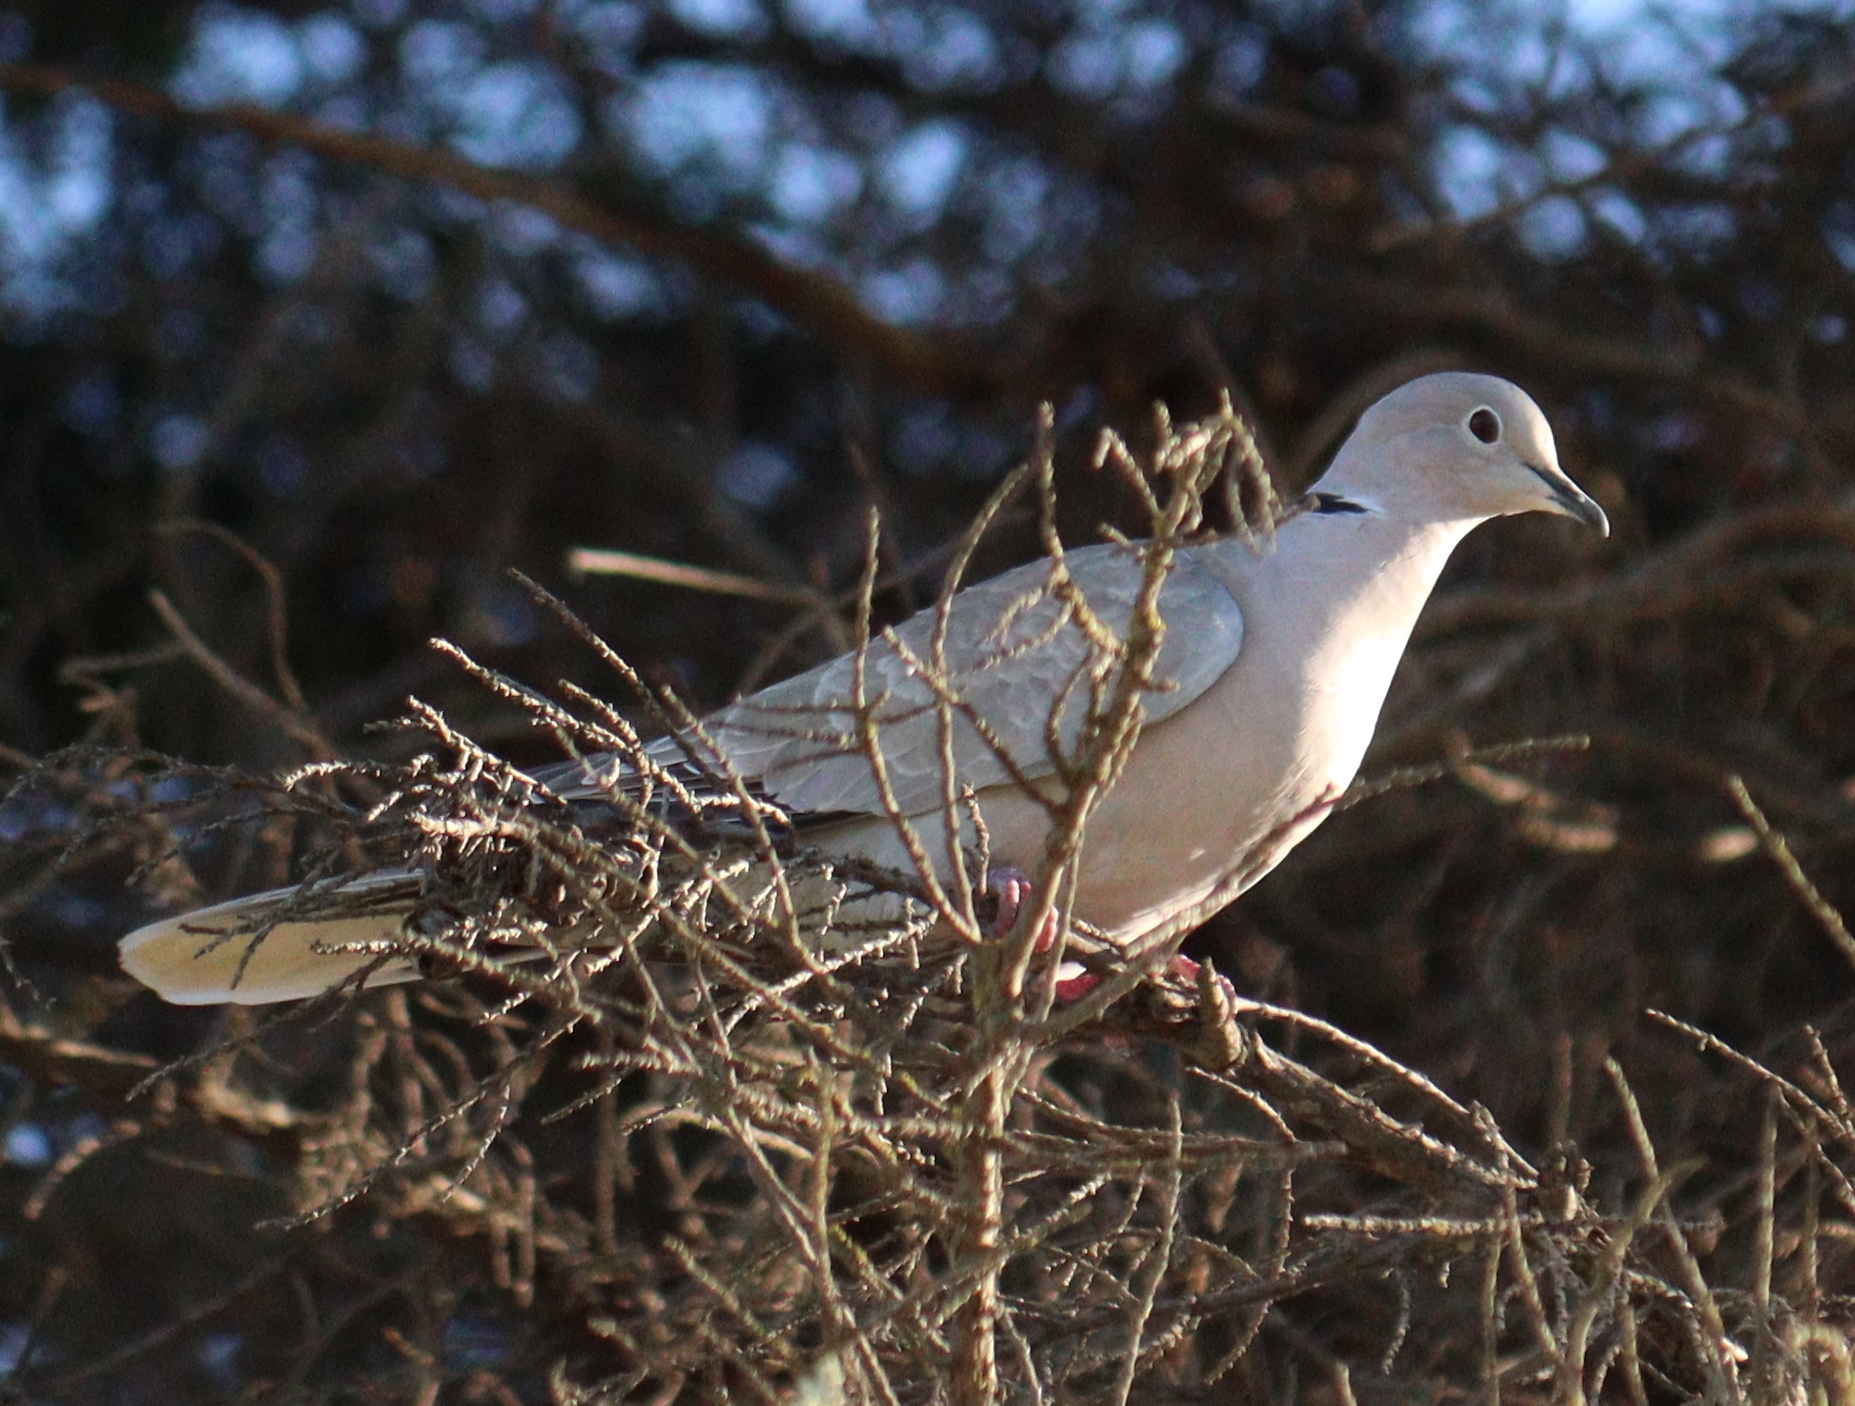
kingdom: Animalia
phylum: Chordata
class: Aves
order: Columbiformes
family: Columbidae
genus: Streptopelia
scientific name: Streptopelia decaocto
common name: Eurasian collared dove
